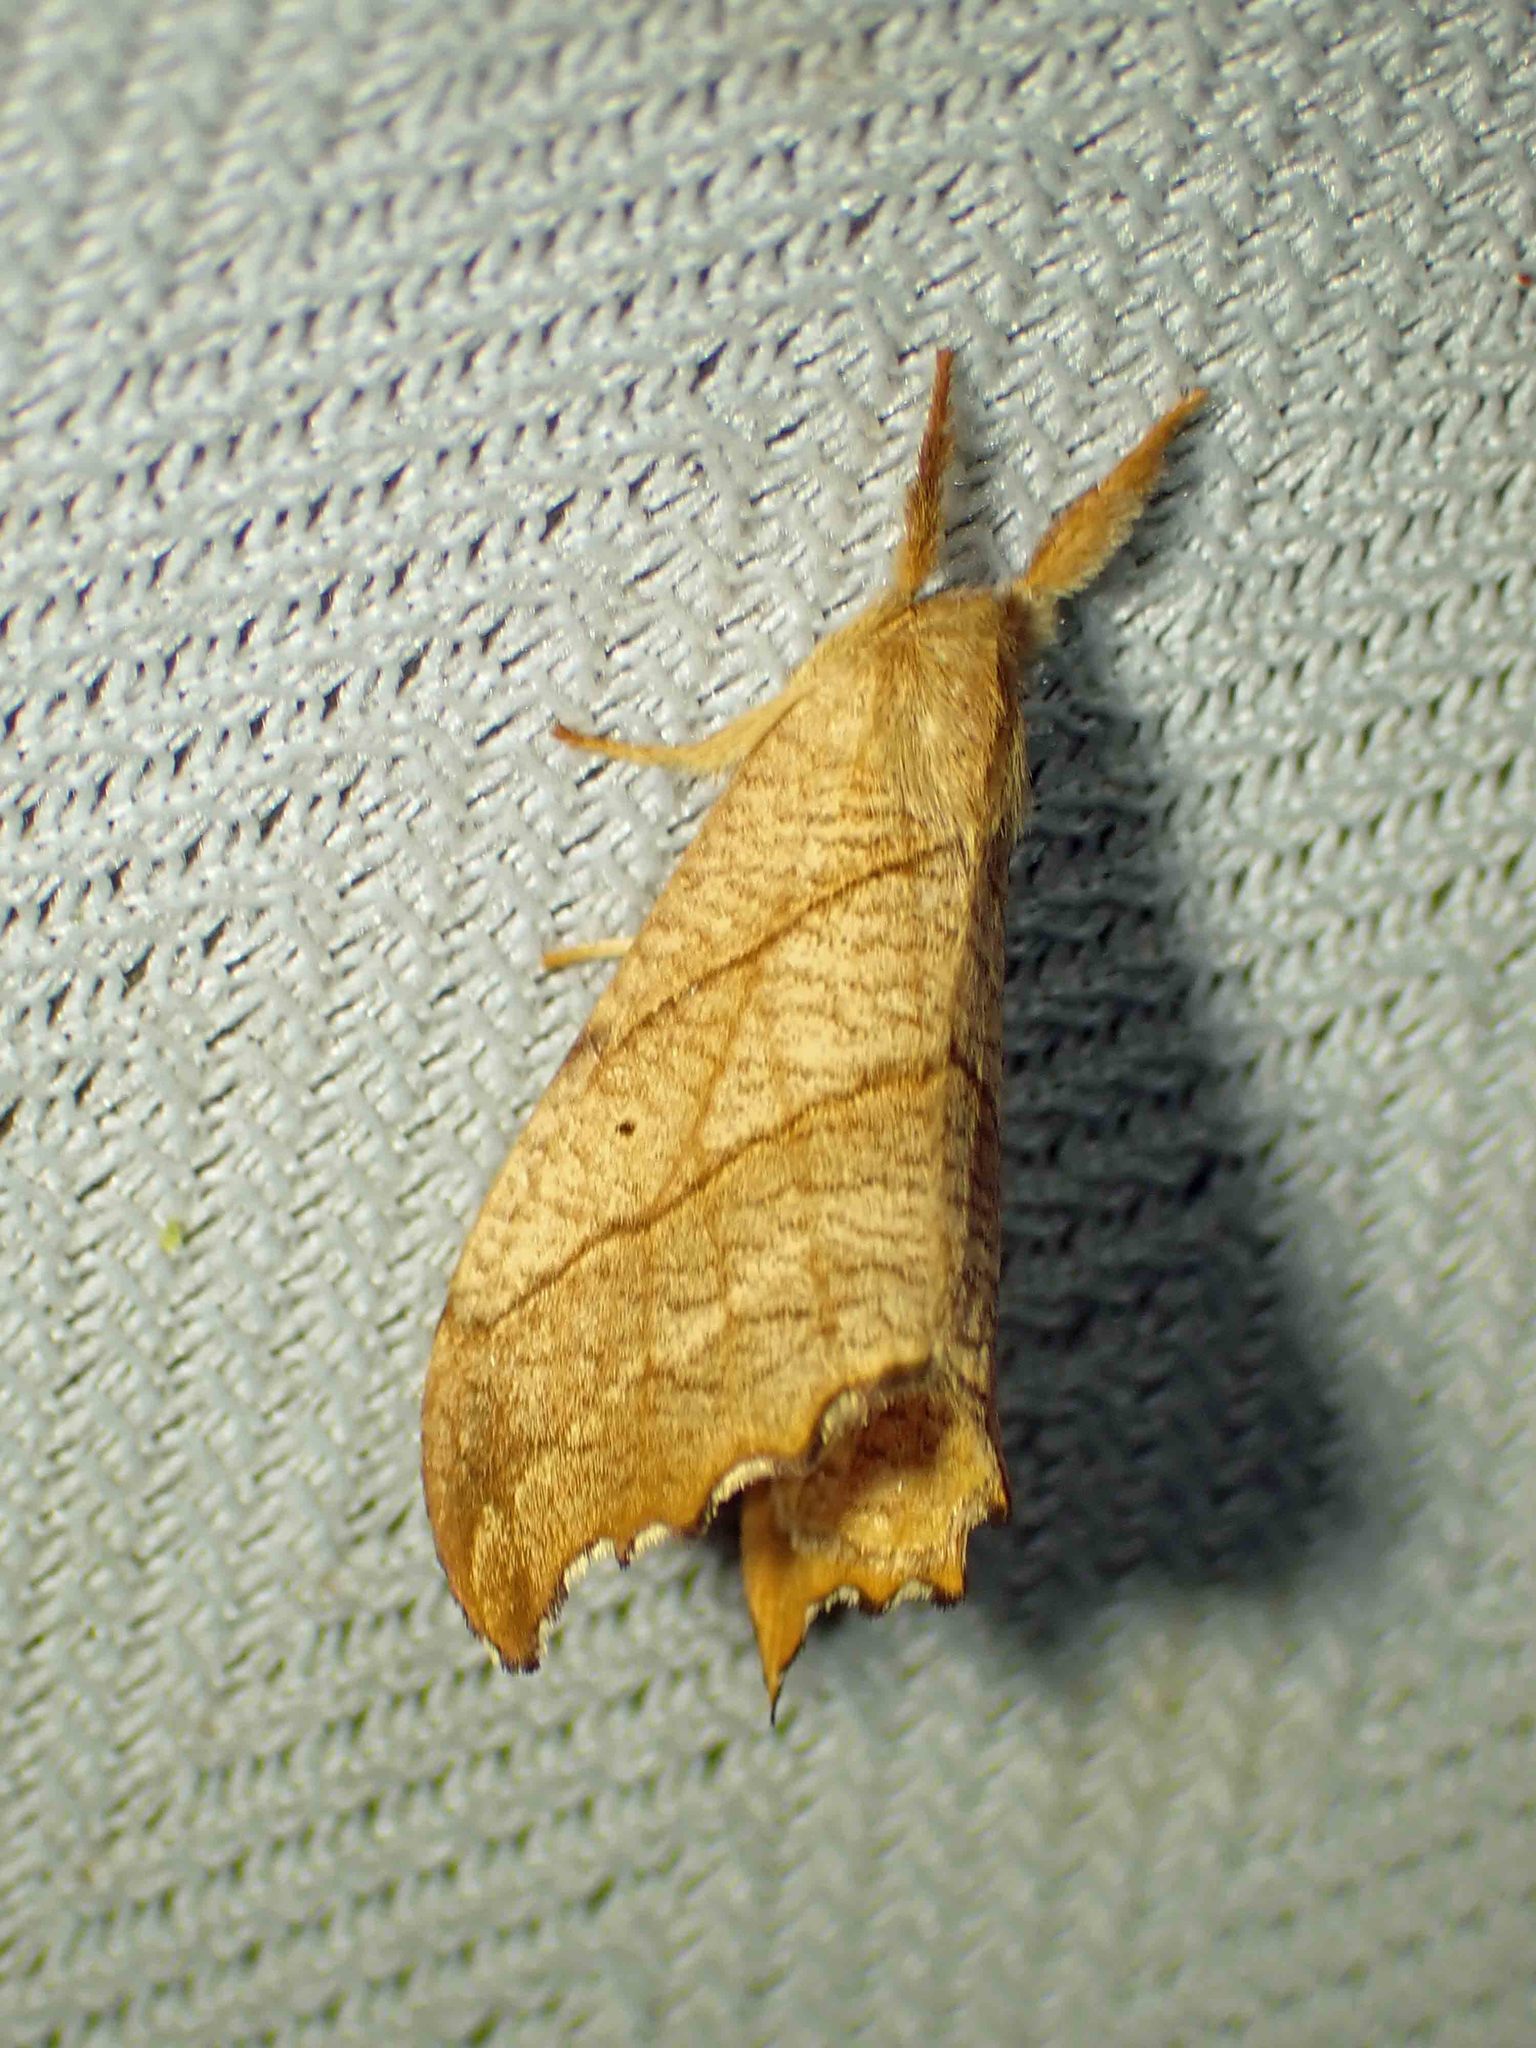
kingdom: Animalia
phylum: Arthropoda
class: Insecta
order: Lepidoptera
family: Drepanidae
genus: Falcaria
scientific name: Falcaria bilineata
